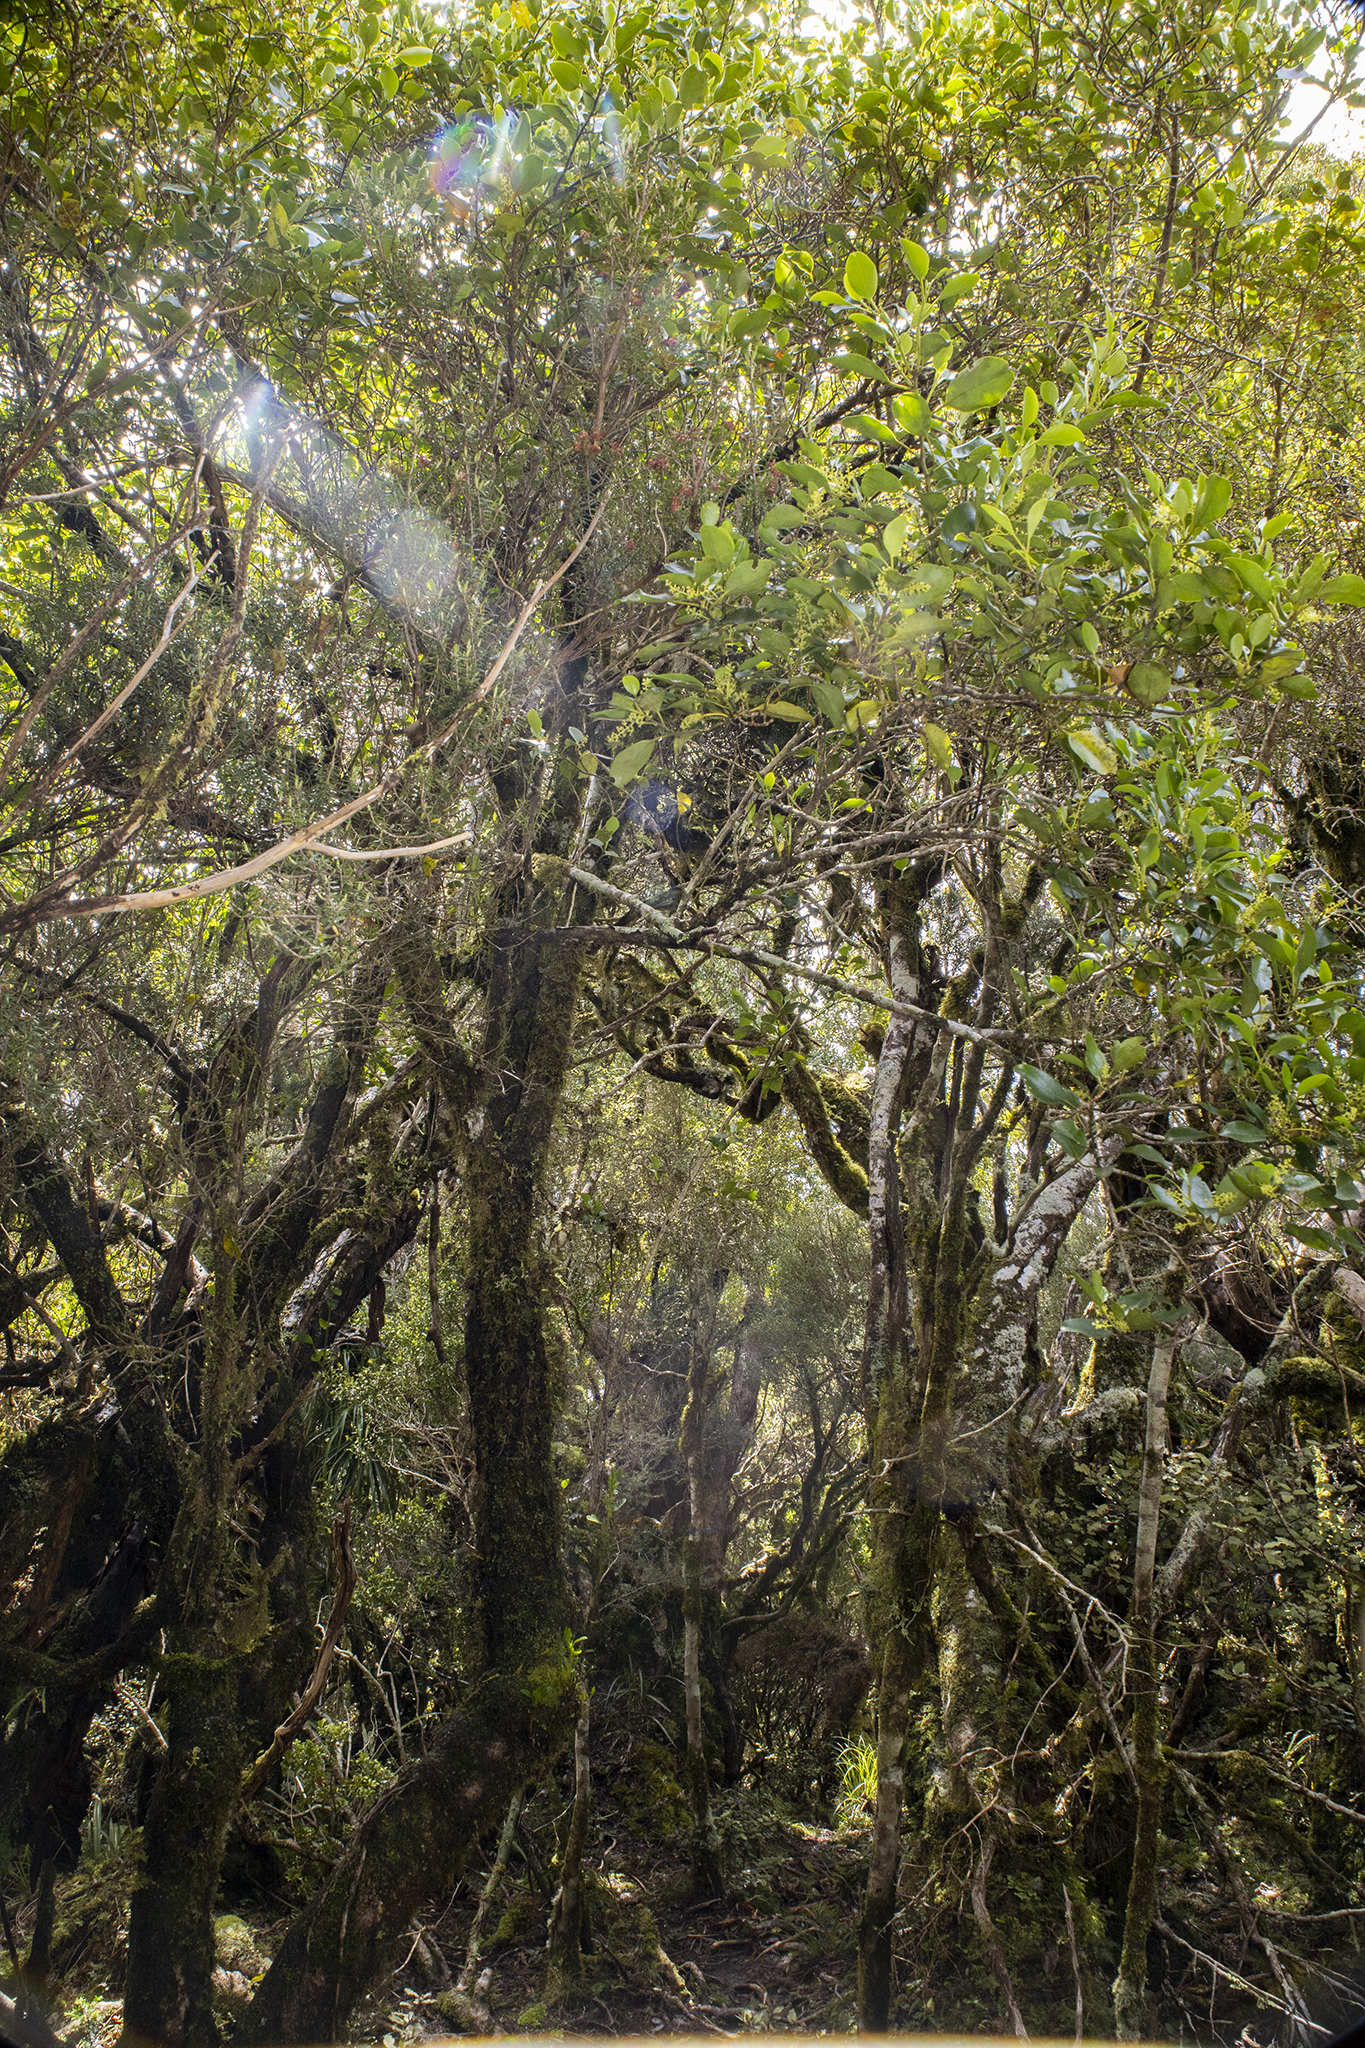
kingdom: Plantae
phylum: Tracheophyta
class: Magnoliopsida
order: Apiales
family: Griseliniaceae
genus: Griselinia
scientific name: Griselinia littoralis
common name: New zealand broadleaf
